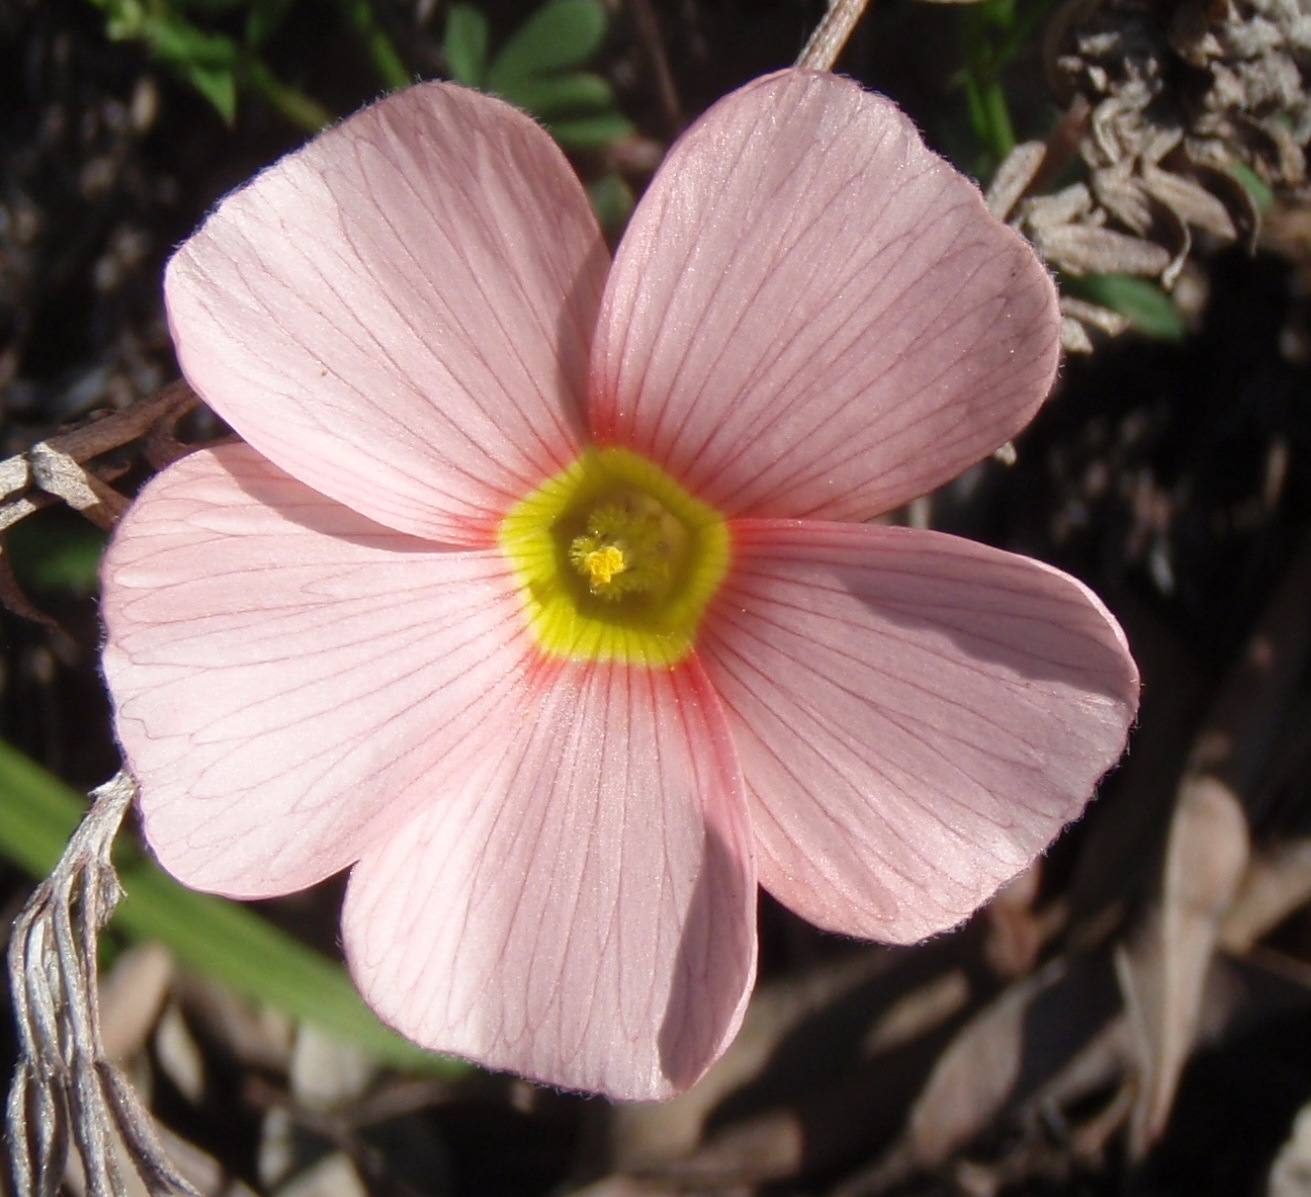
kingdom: Plantae
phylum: Tracheophyta
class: Magnoliopsida
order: Oxalidales
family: Oxalidaceae
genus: Oxalis
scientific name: Oxalis obtusa
